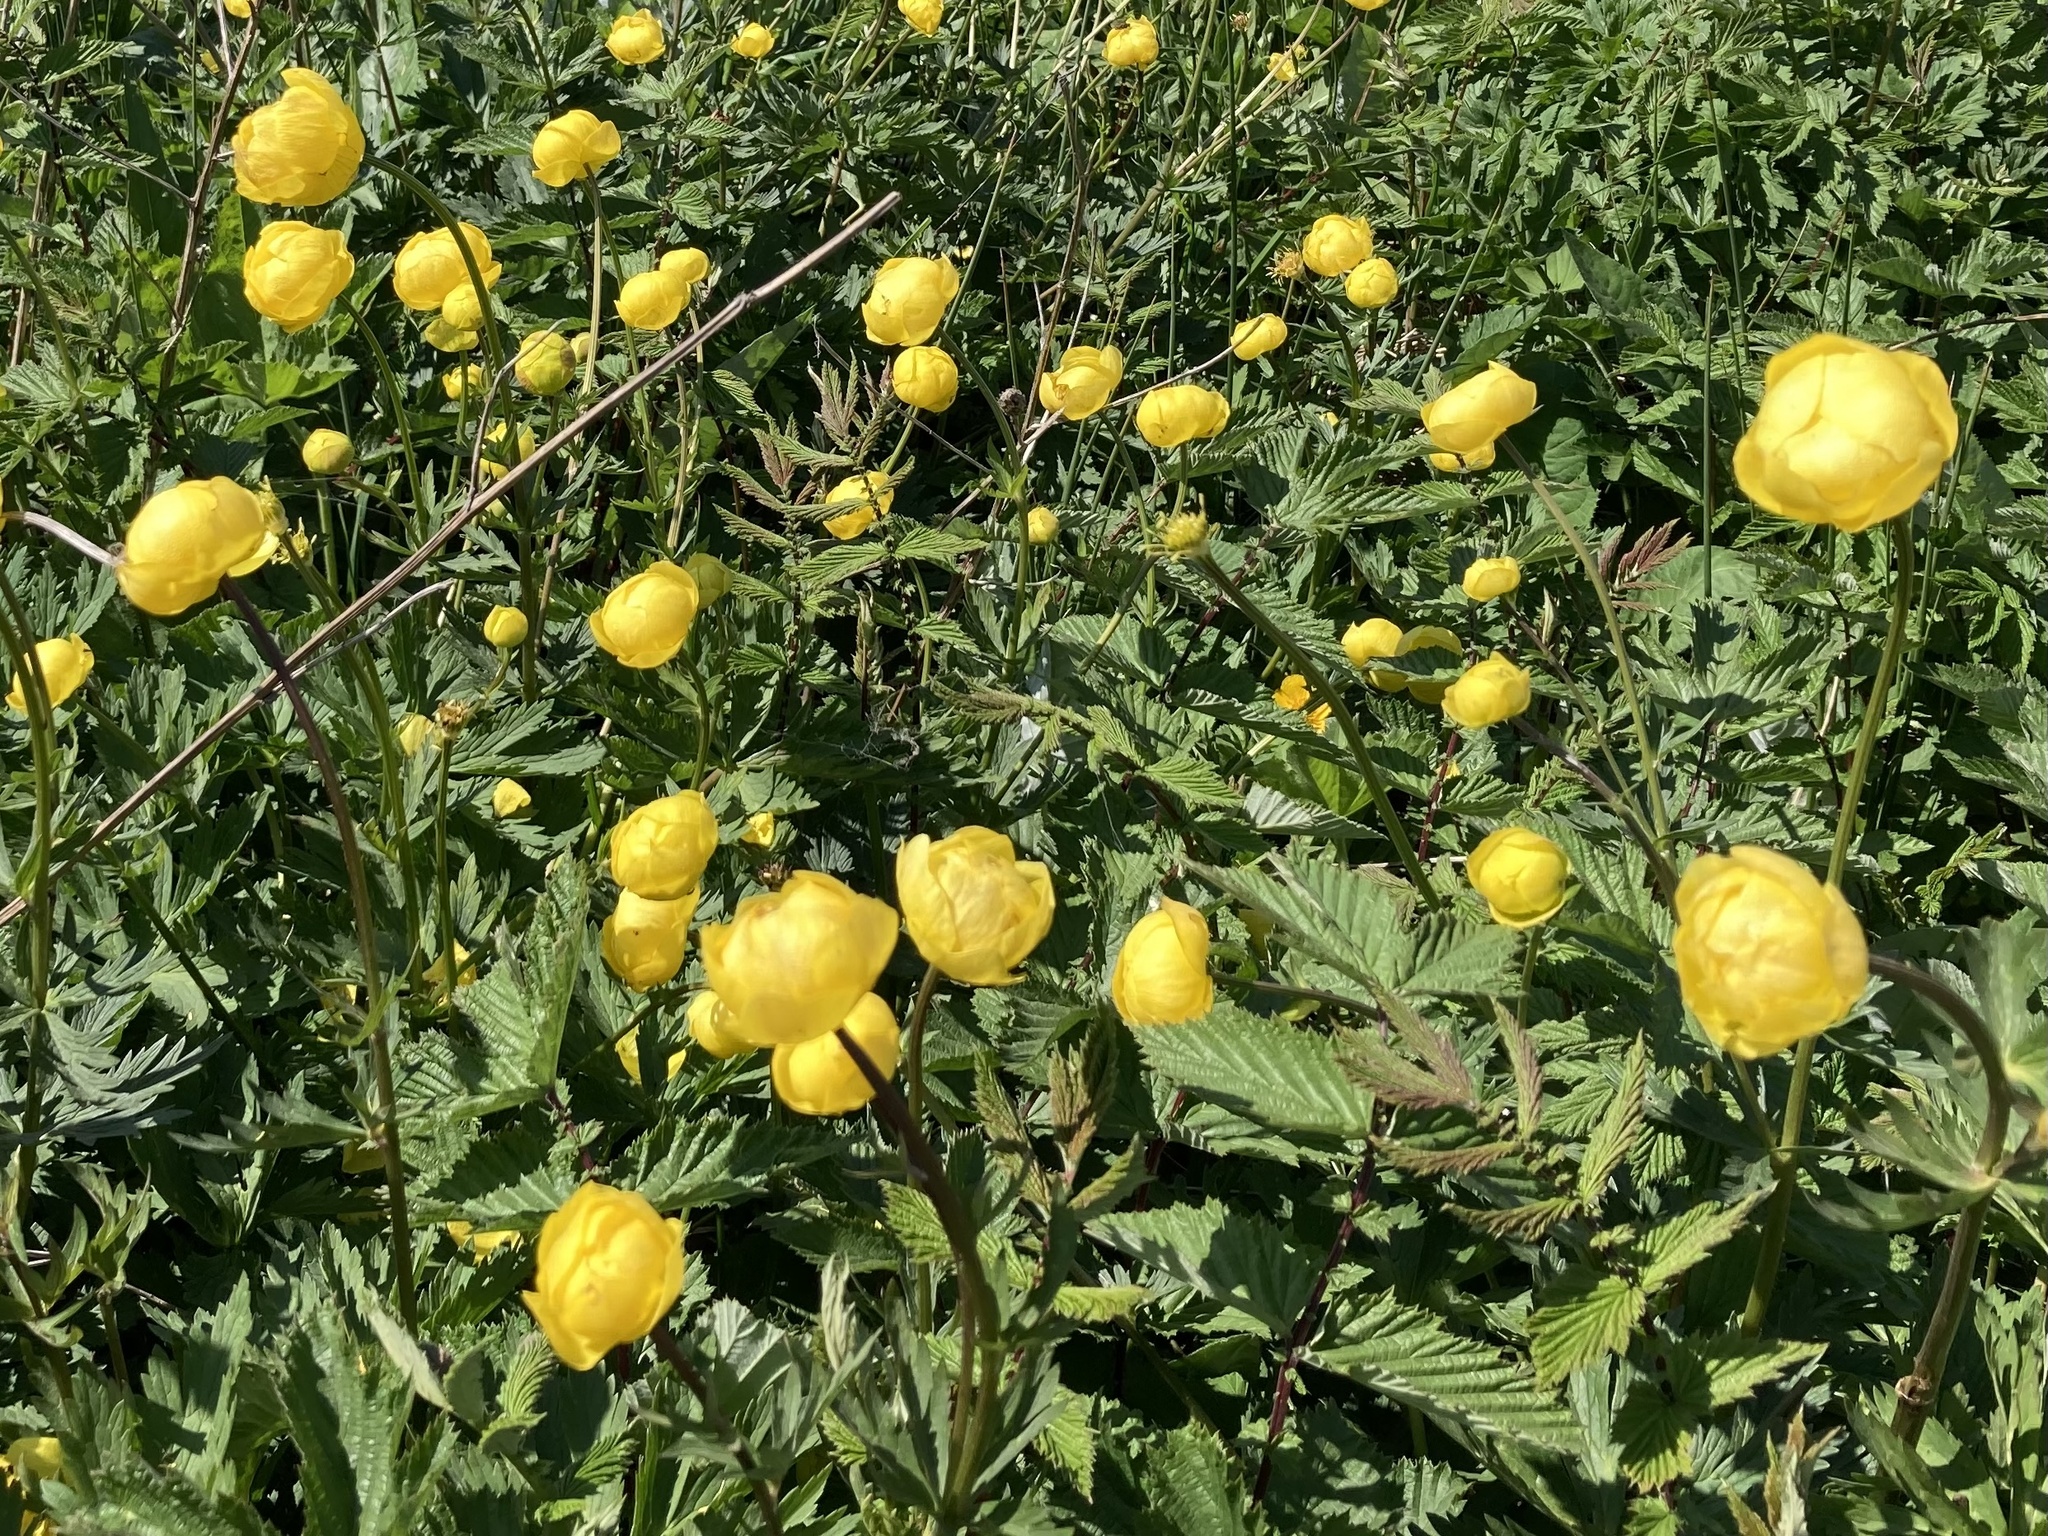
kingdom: Plantae
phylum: Tracheophyta
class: Magnoliopsida
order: Ranunculales
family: Ranunculaceae
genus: Trollius
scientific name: Trollius europaeus
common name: European globeflower
